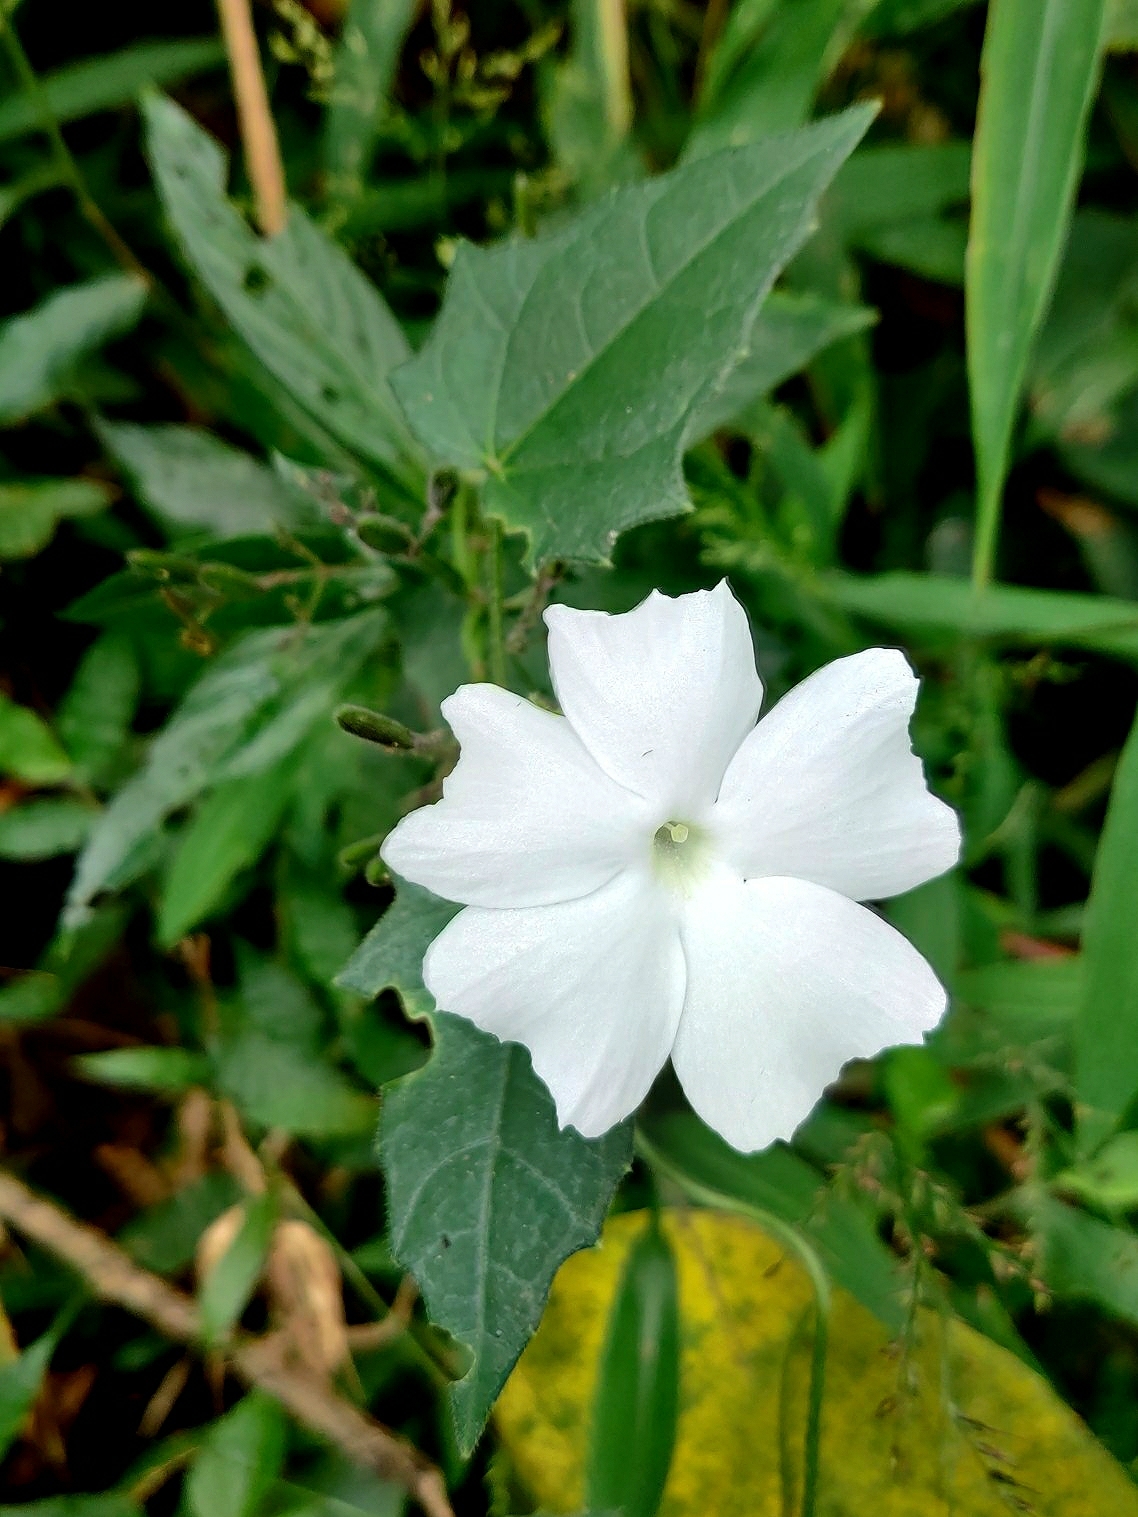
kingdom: Plantae
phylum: Tracheophyta
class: Magnoliopsida
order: Lamiales
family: Acanthaceae
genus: Thunbergia
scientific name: Thunbergia fragrans
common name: Whitelady
